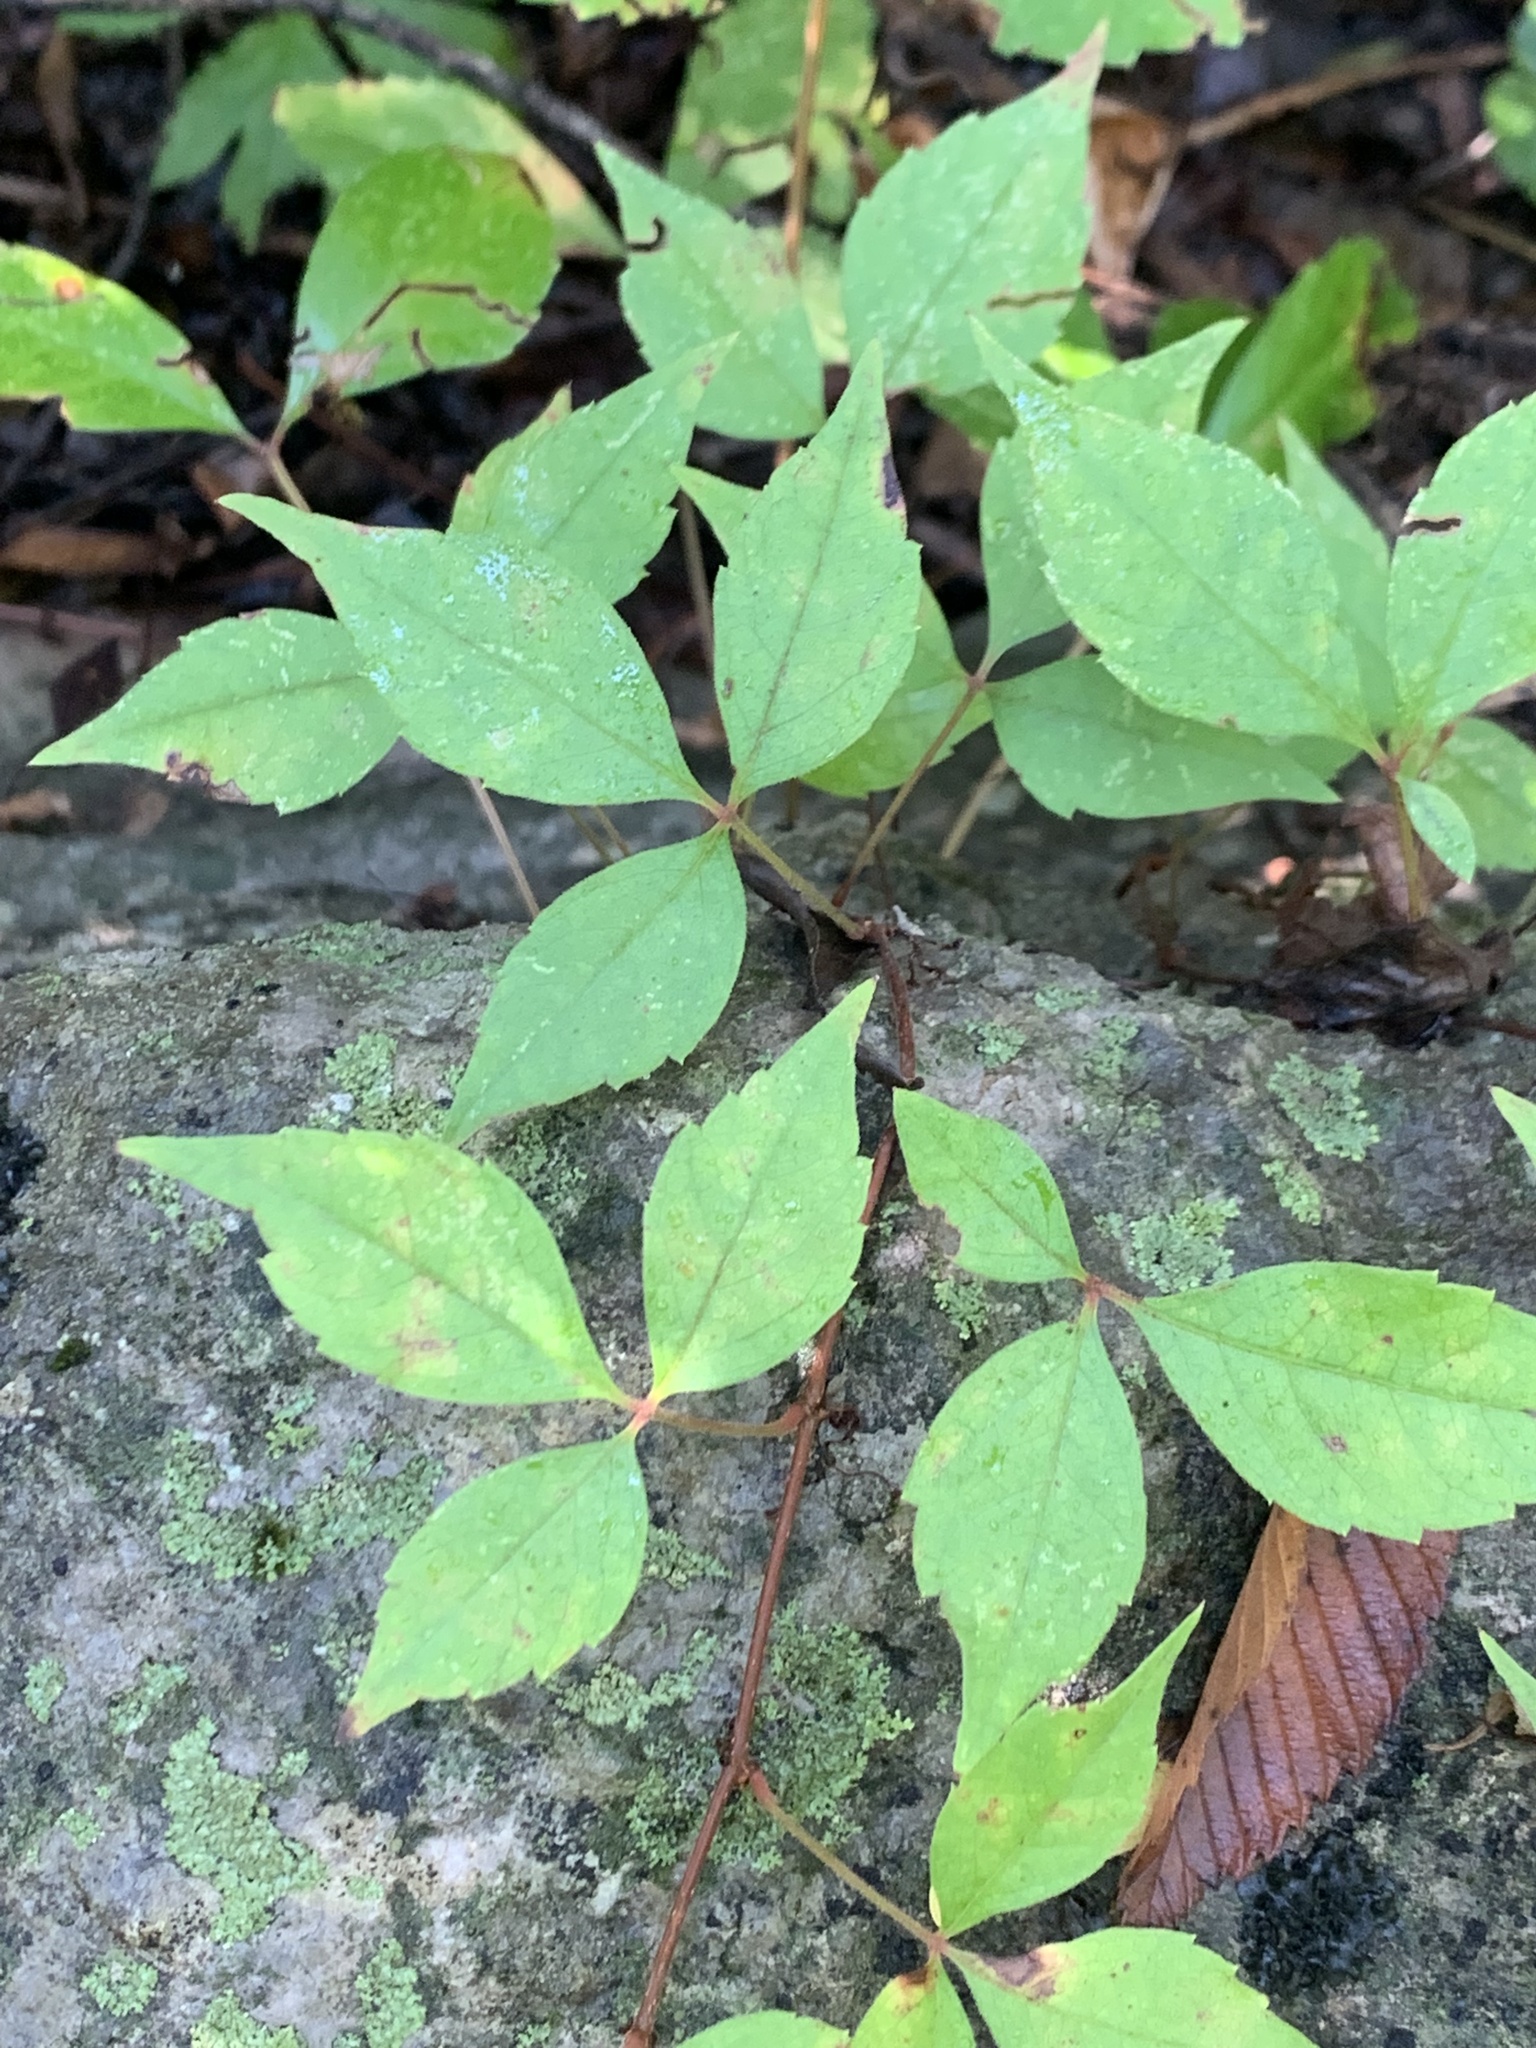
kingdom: Plantae
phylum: Tracheophyta
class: Magnoliopsida
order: Vitales
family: Vitaceae
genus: Parthenocissus
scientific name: Parthenocissus quinquefolia
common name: Virginia-creeper
